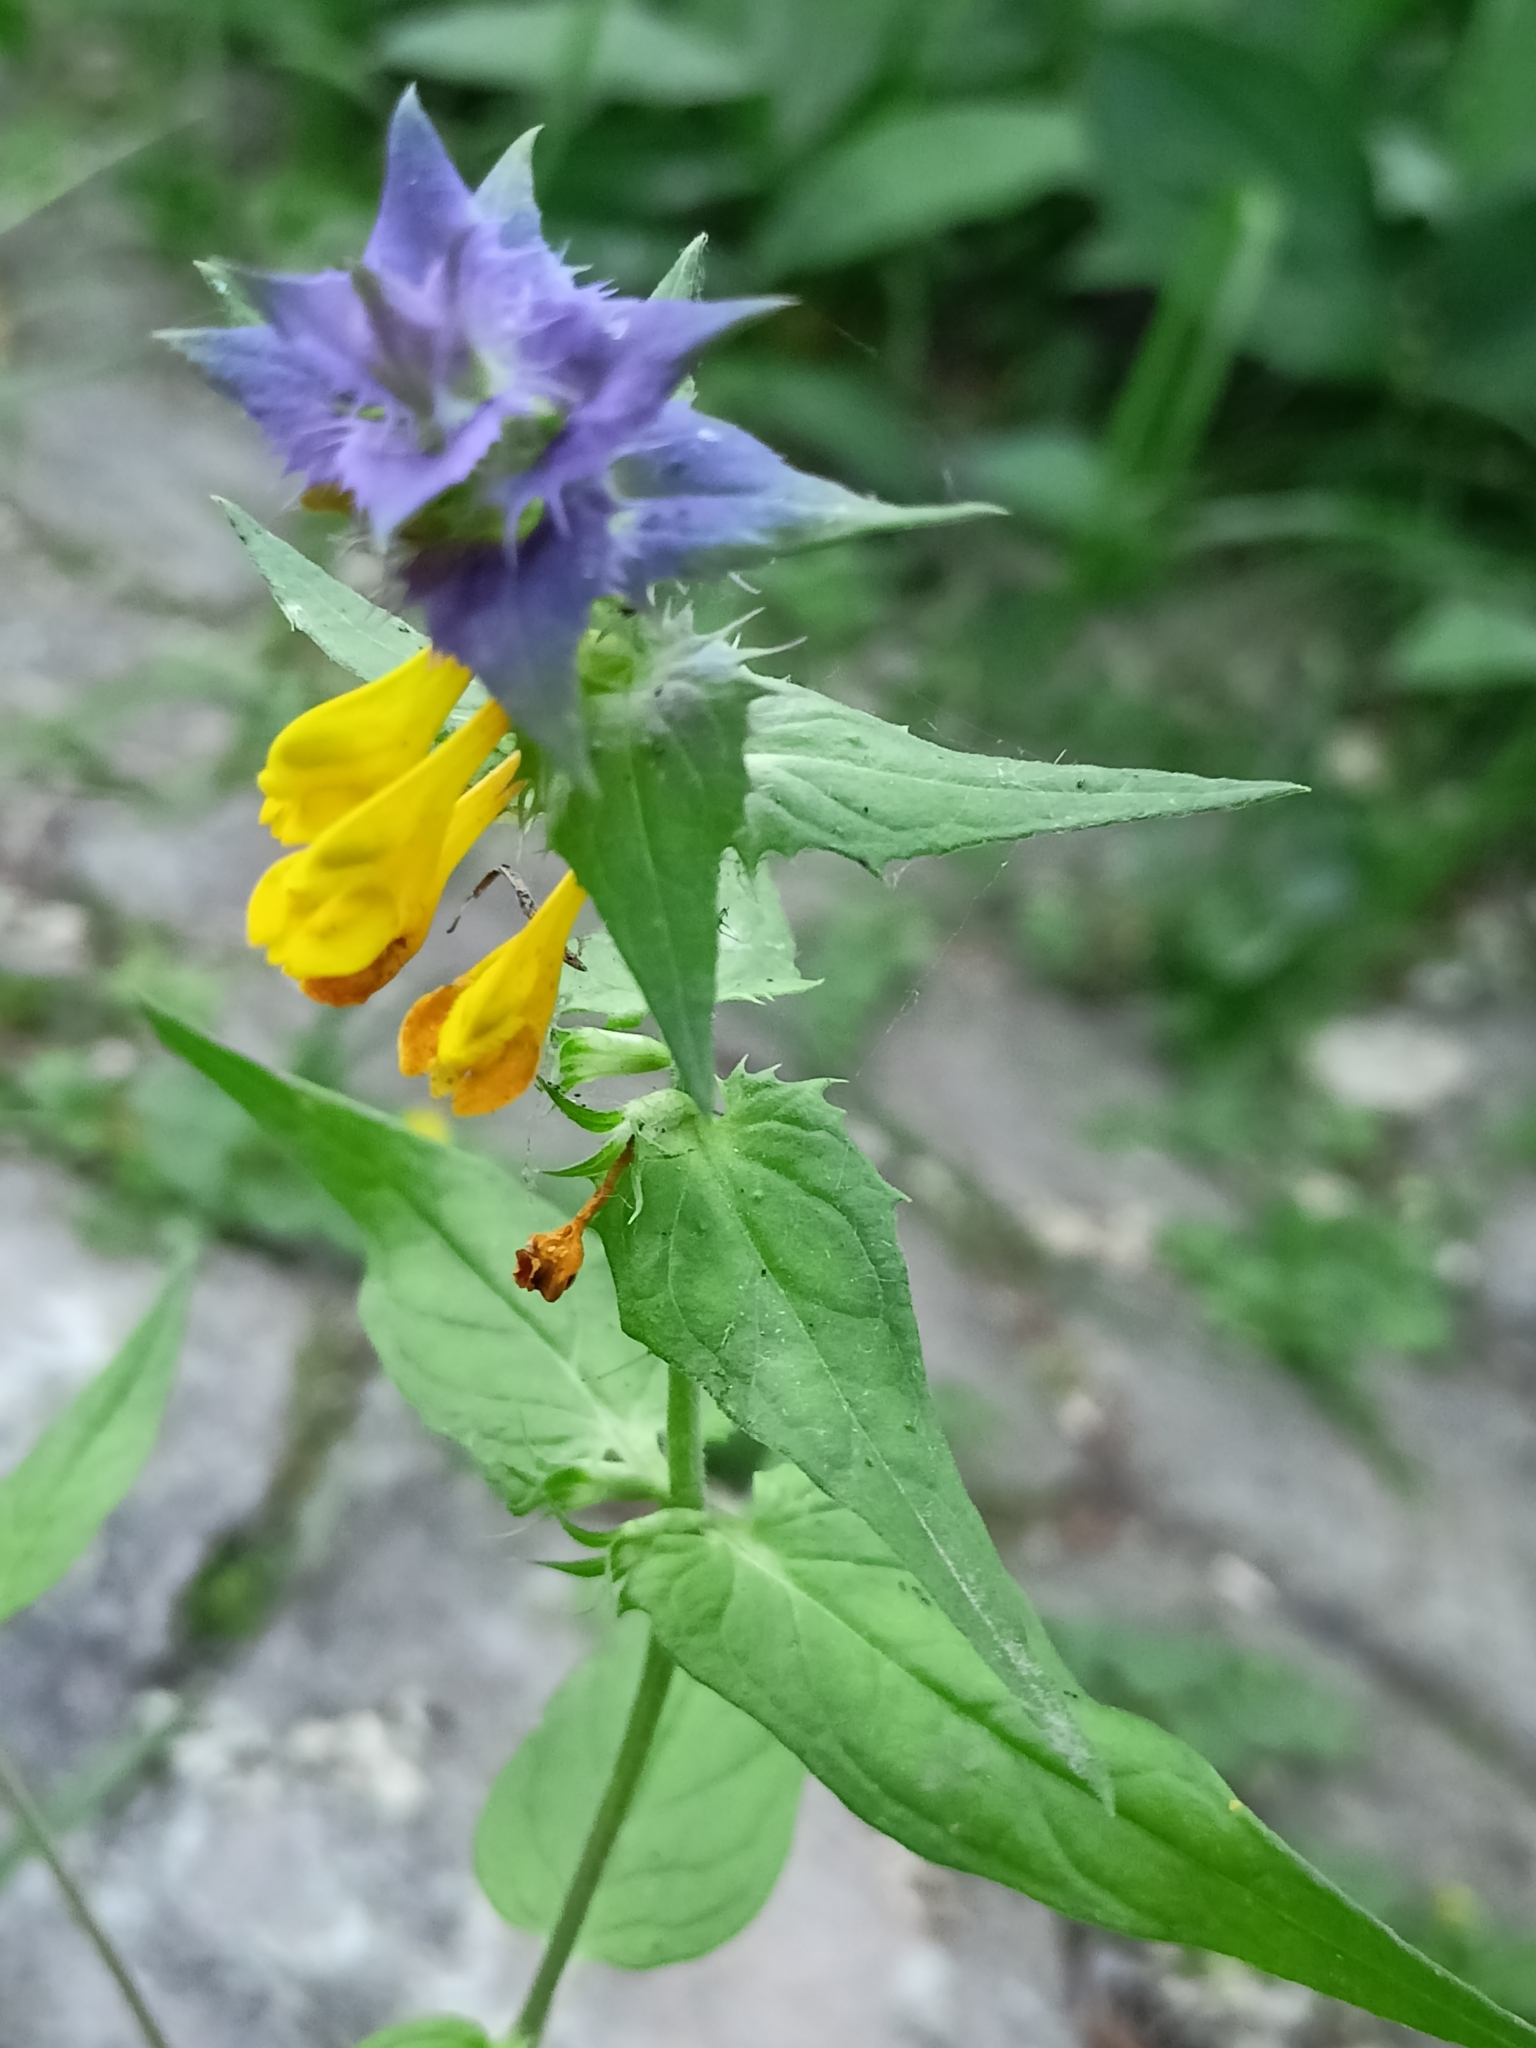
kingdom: Plantae
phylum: Tracheophyta
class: Magnoliopsida
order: Lamiales
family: Orobanchaceae
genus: Melampyrum
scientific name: Melampyrum nemorosum
